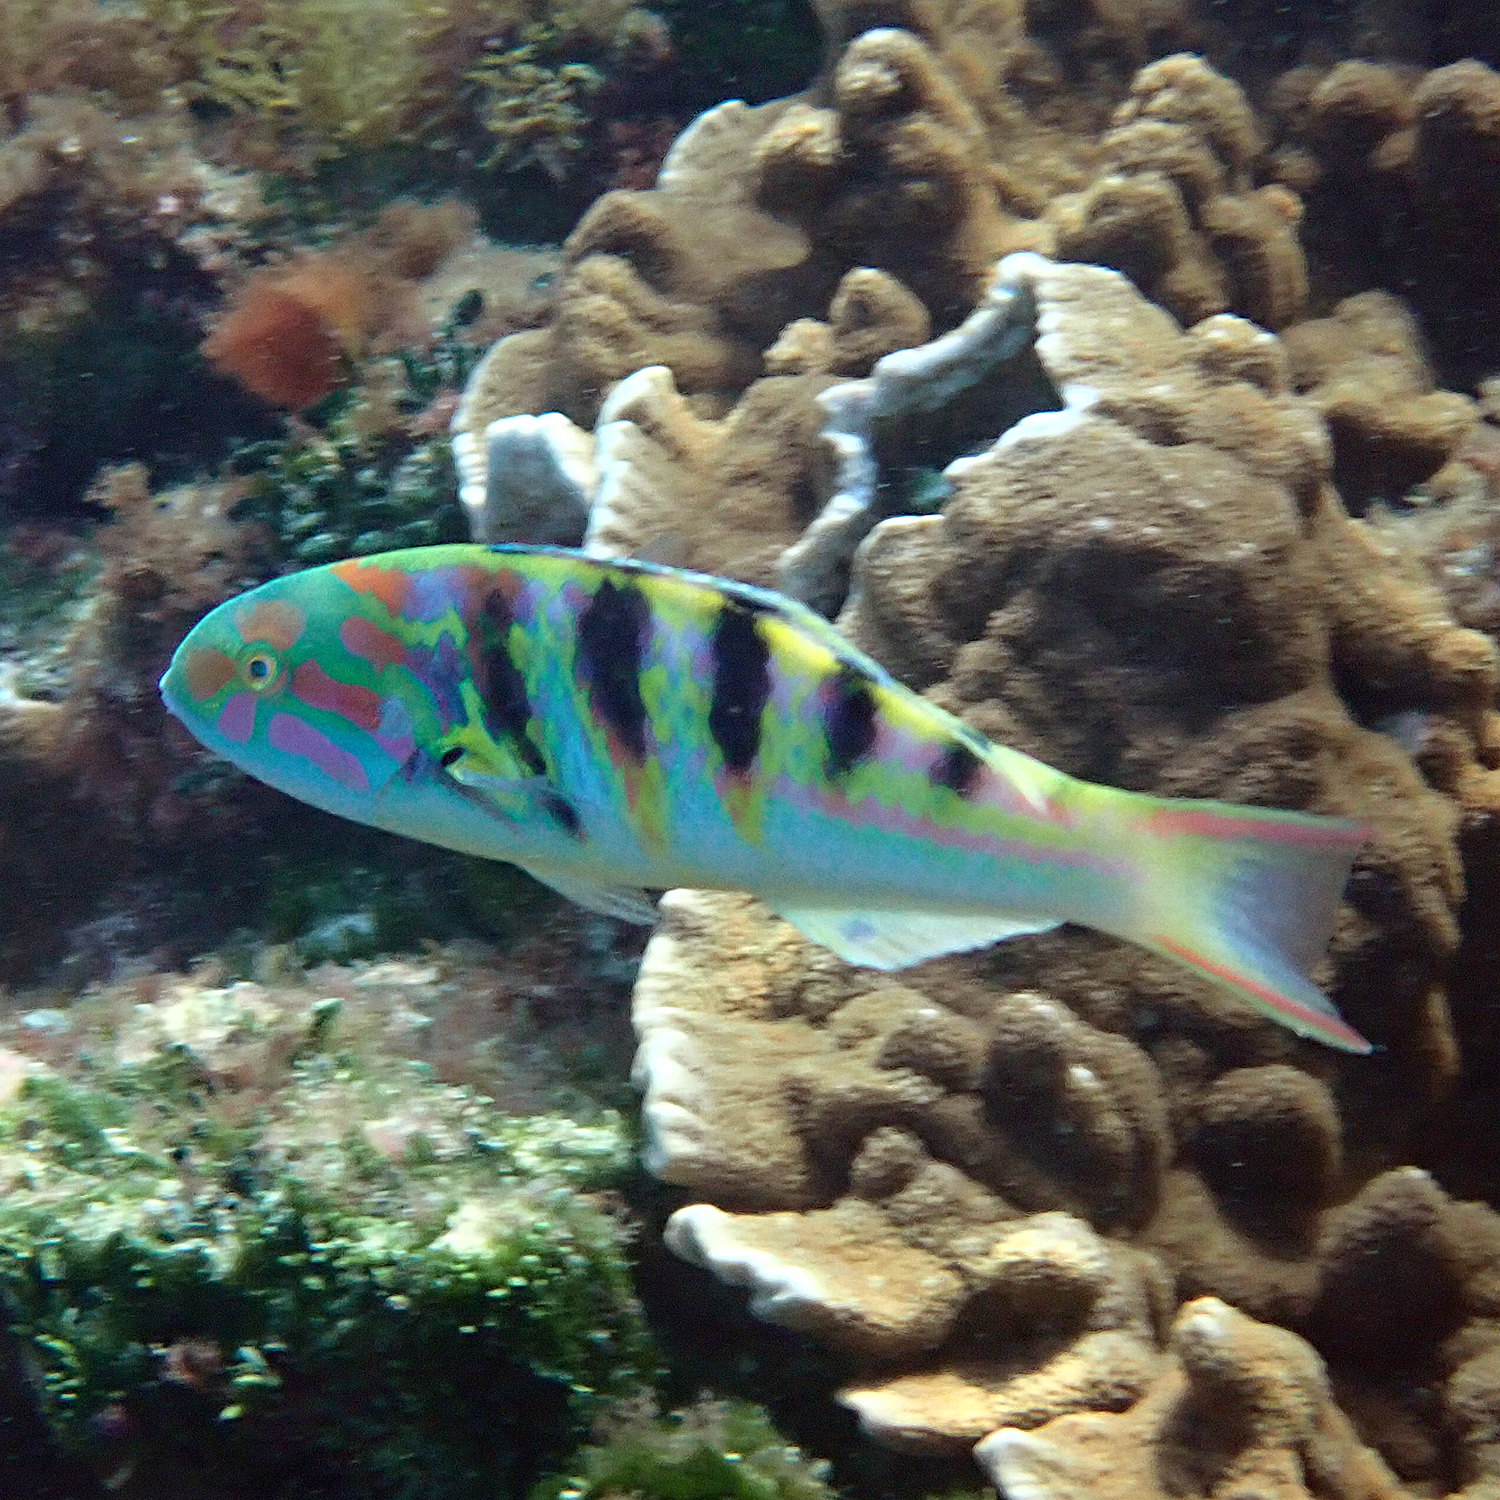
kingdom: Animalia
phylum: Chordata
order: Perciformes
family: Labridae
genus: Thalassoma
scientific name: Thalassoma hardwicke
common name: Sixbar wrasse
